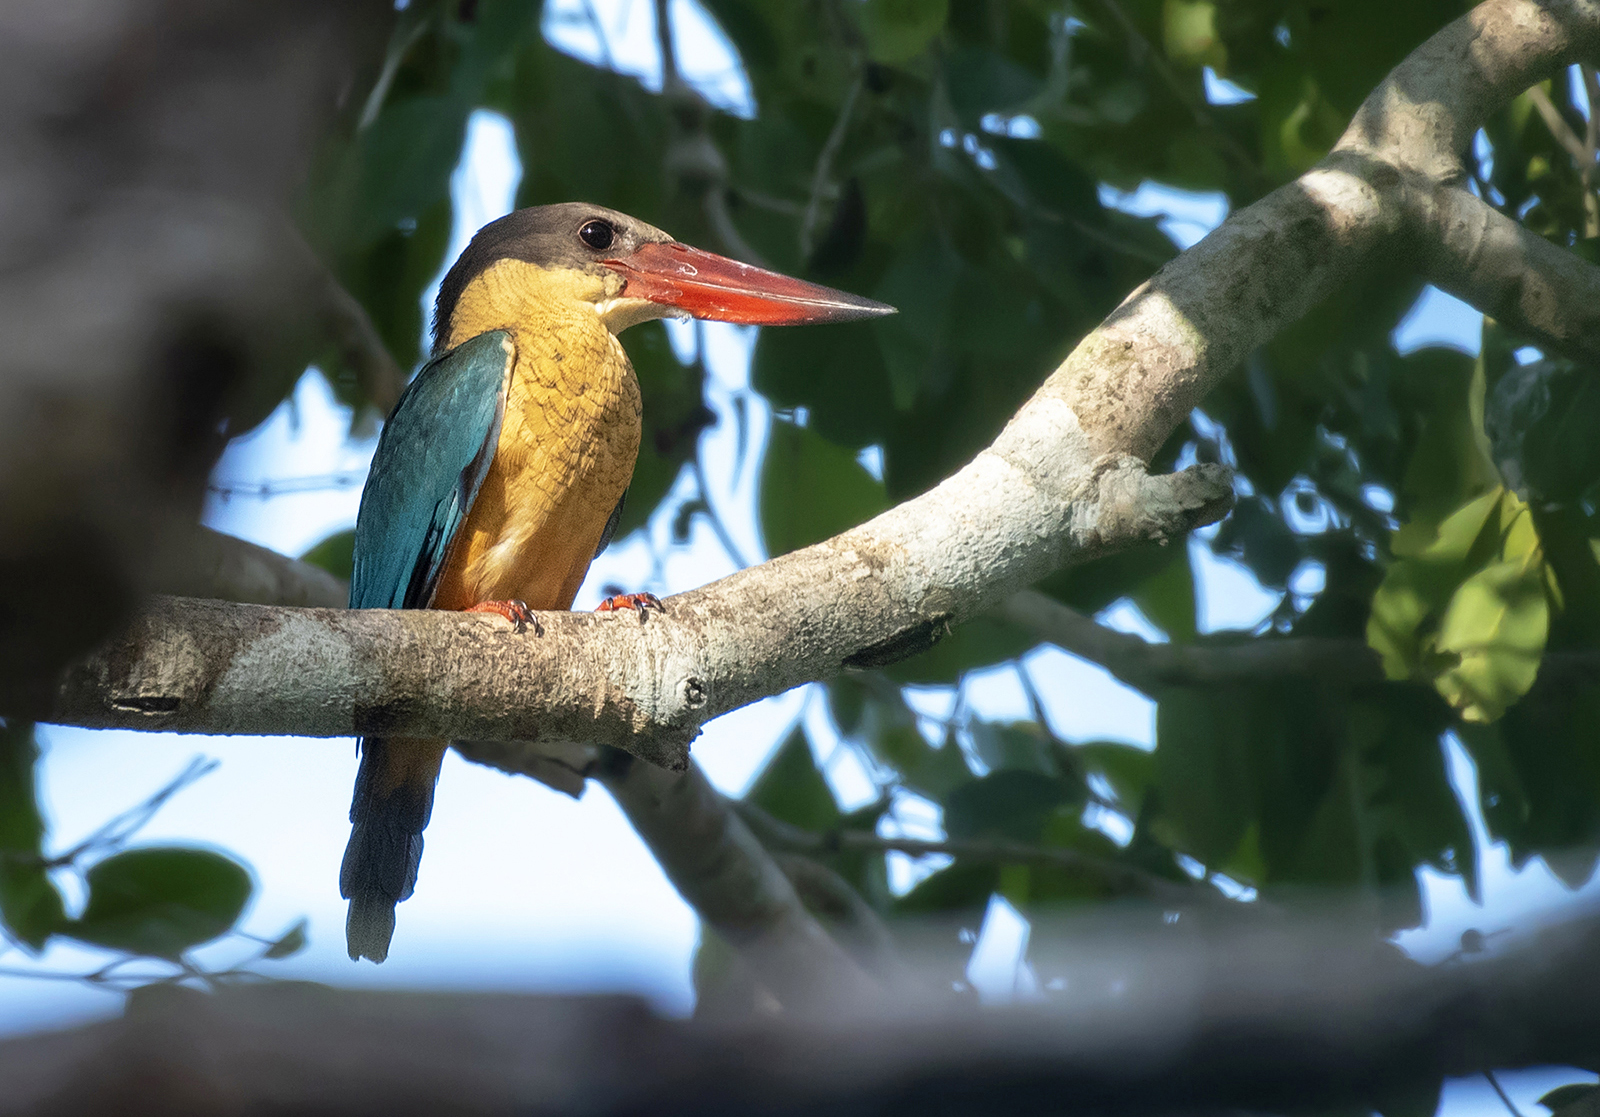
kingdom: Animalia
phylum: Chordata
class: Aves
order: Coraciiformes
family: Alcedinidae
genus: Pelargopsis
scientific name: Pelargopsis capensis
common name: Stork-billed kingfisher
